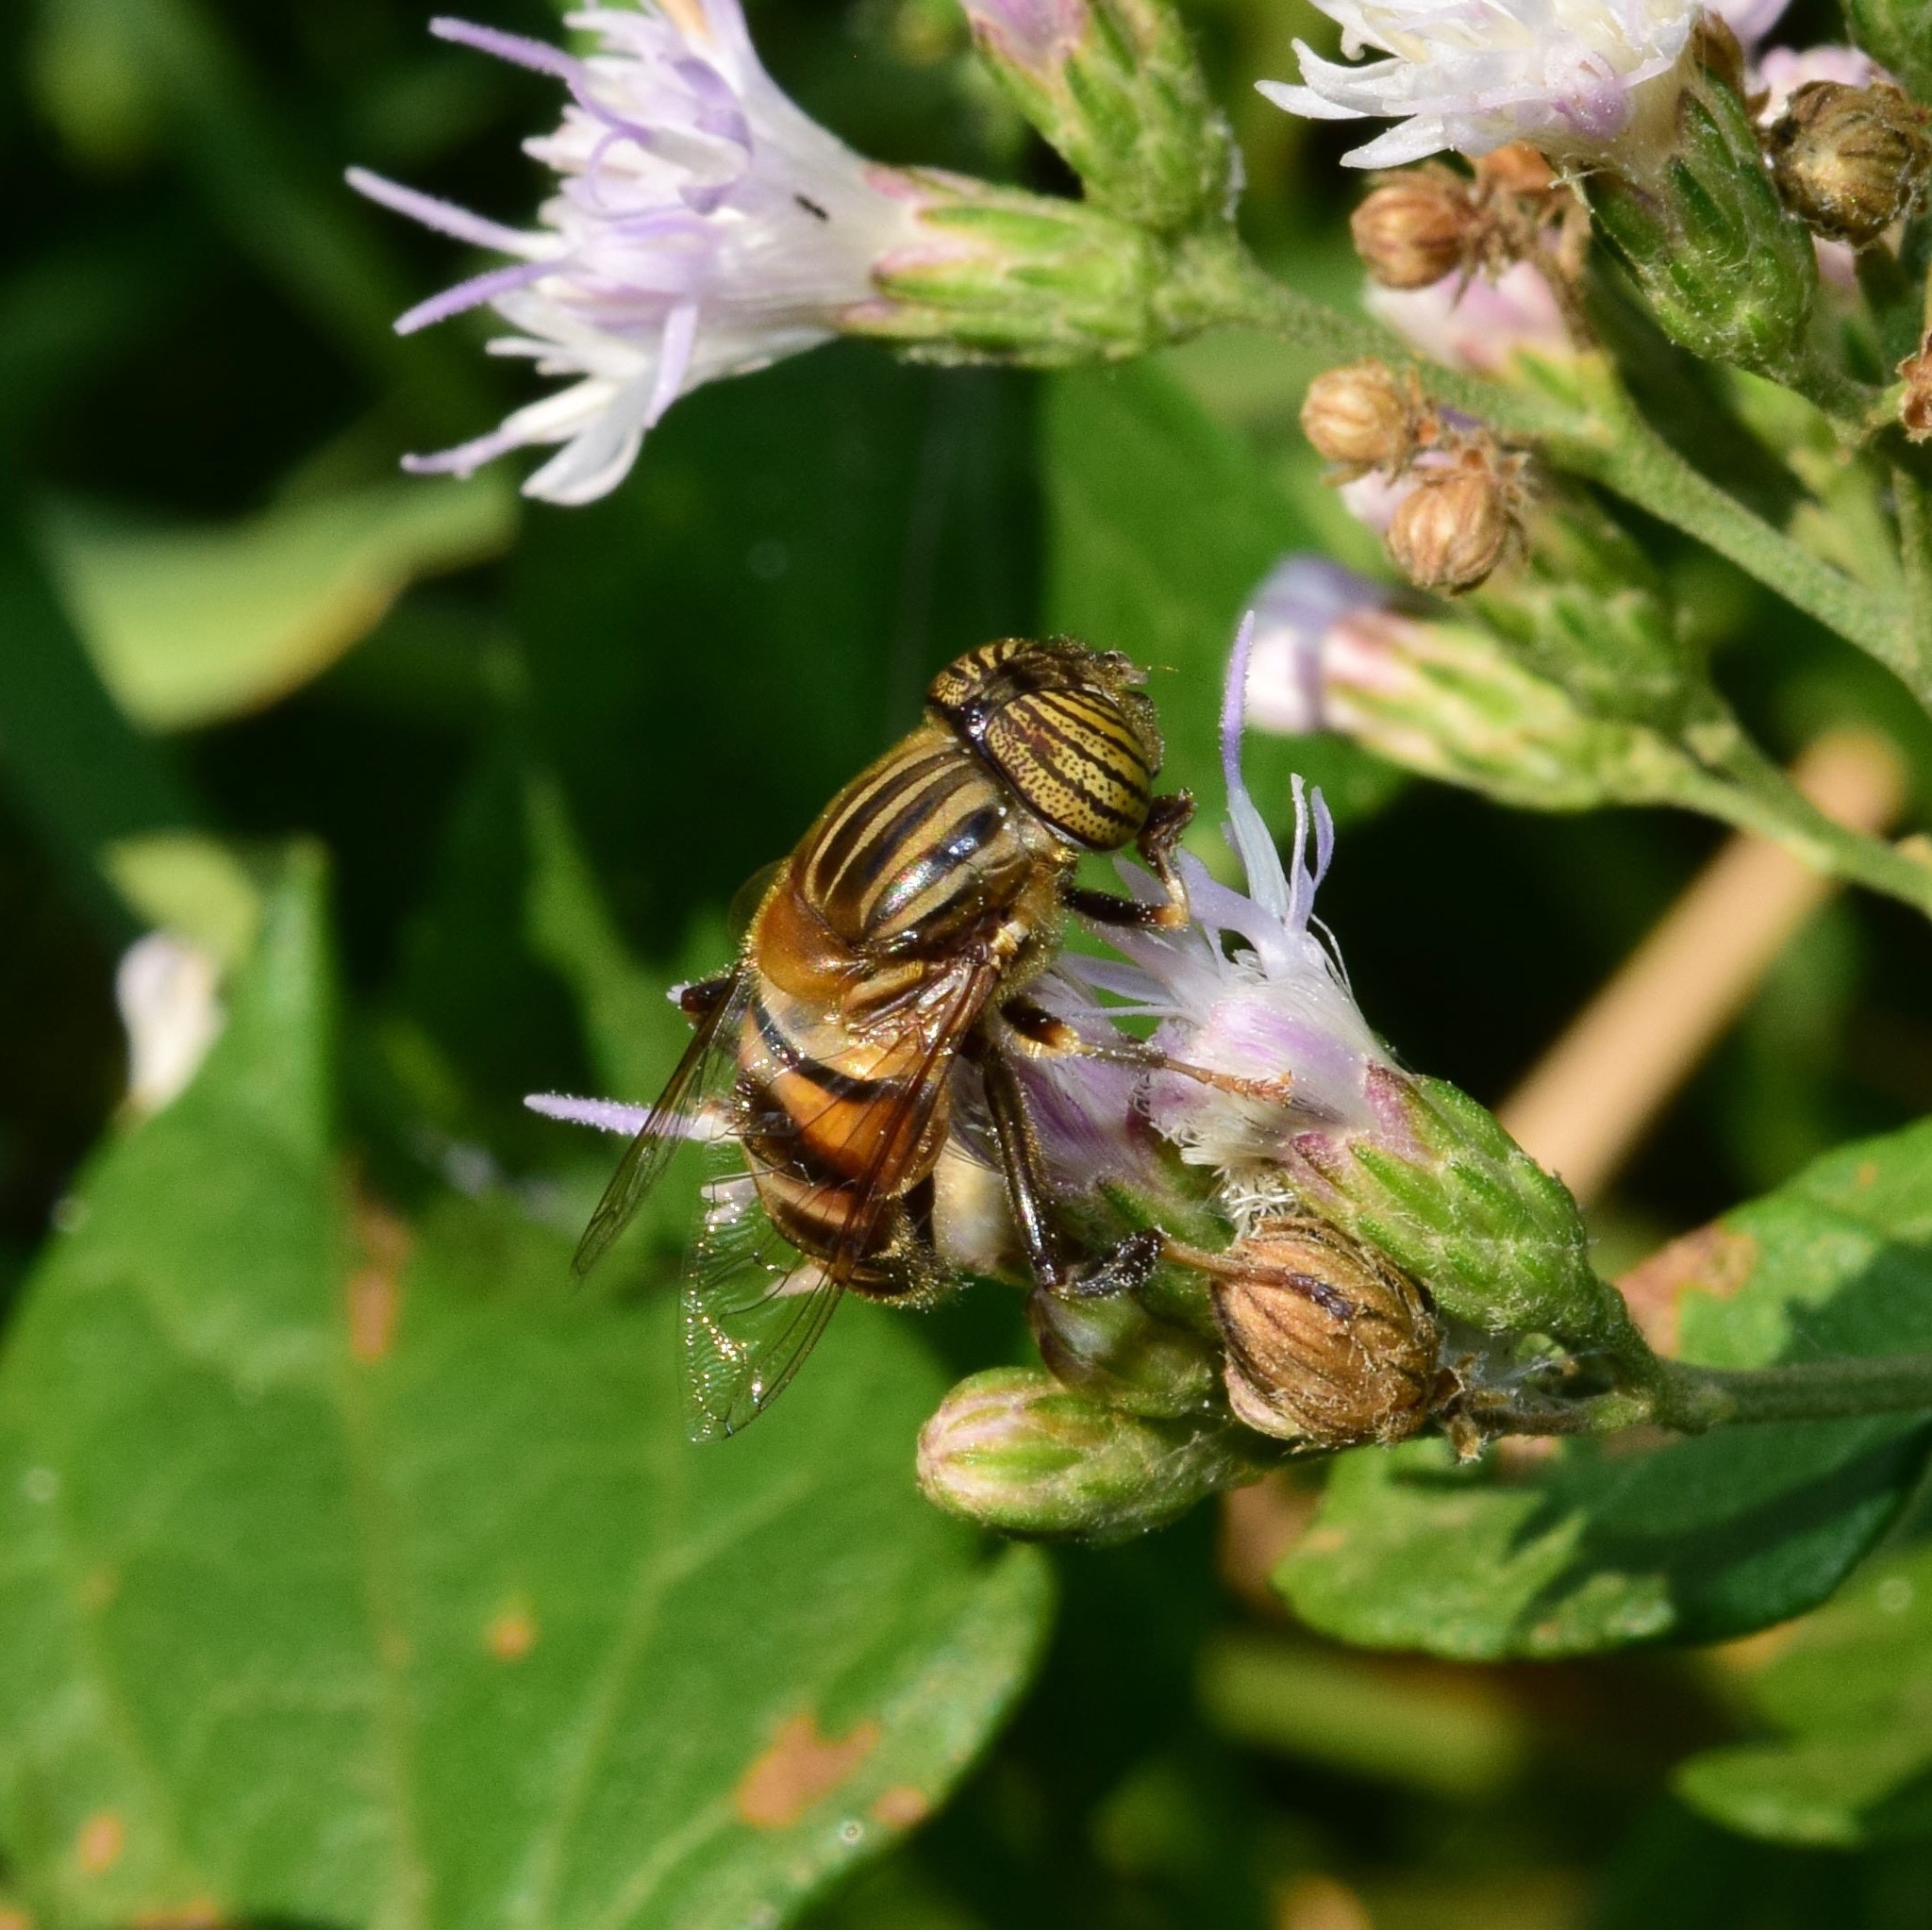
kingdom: Animalia
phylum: Arthropoda
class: Insecta
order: Diptera
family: Syrphidae
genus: Eristalinus
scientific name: Eristalinus quinquelineatus
